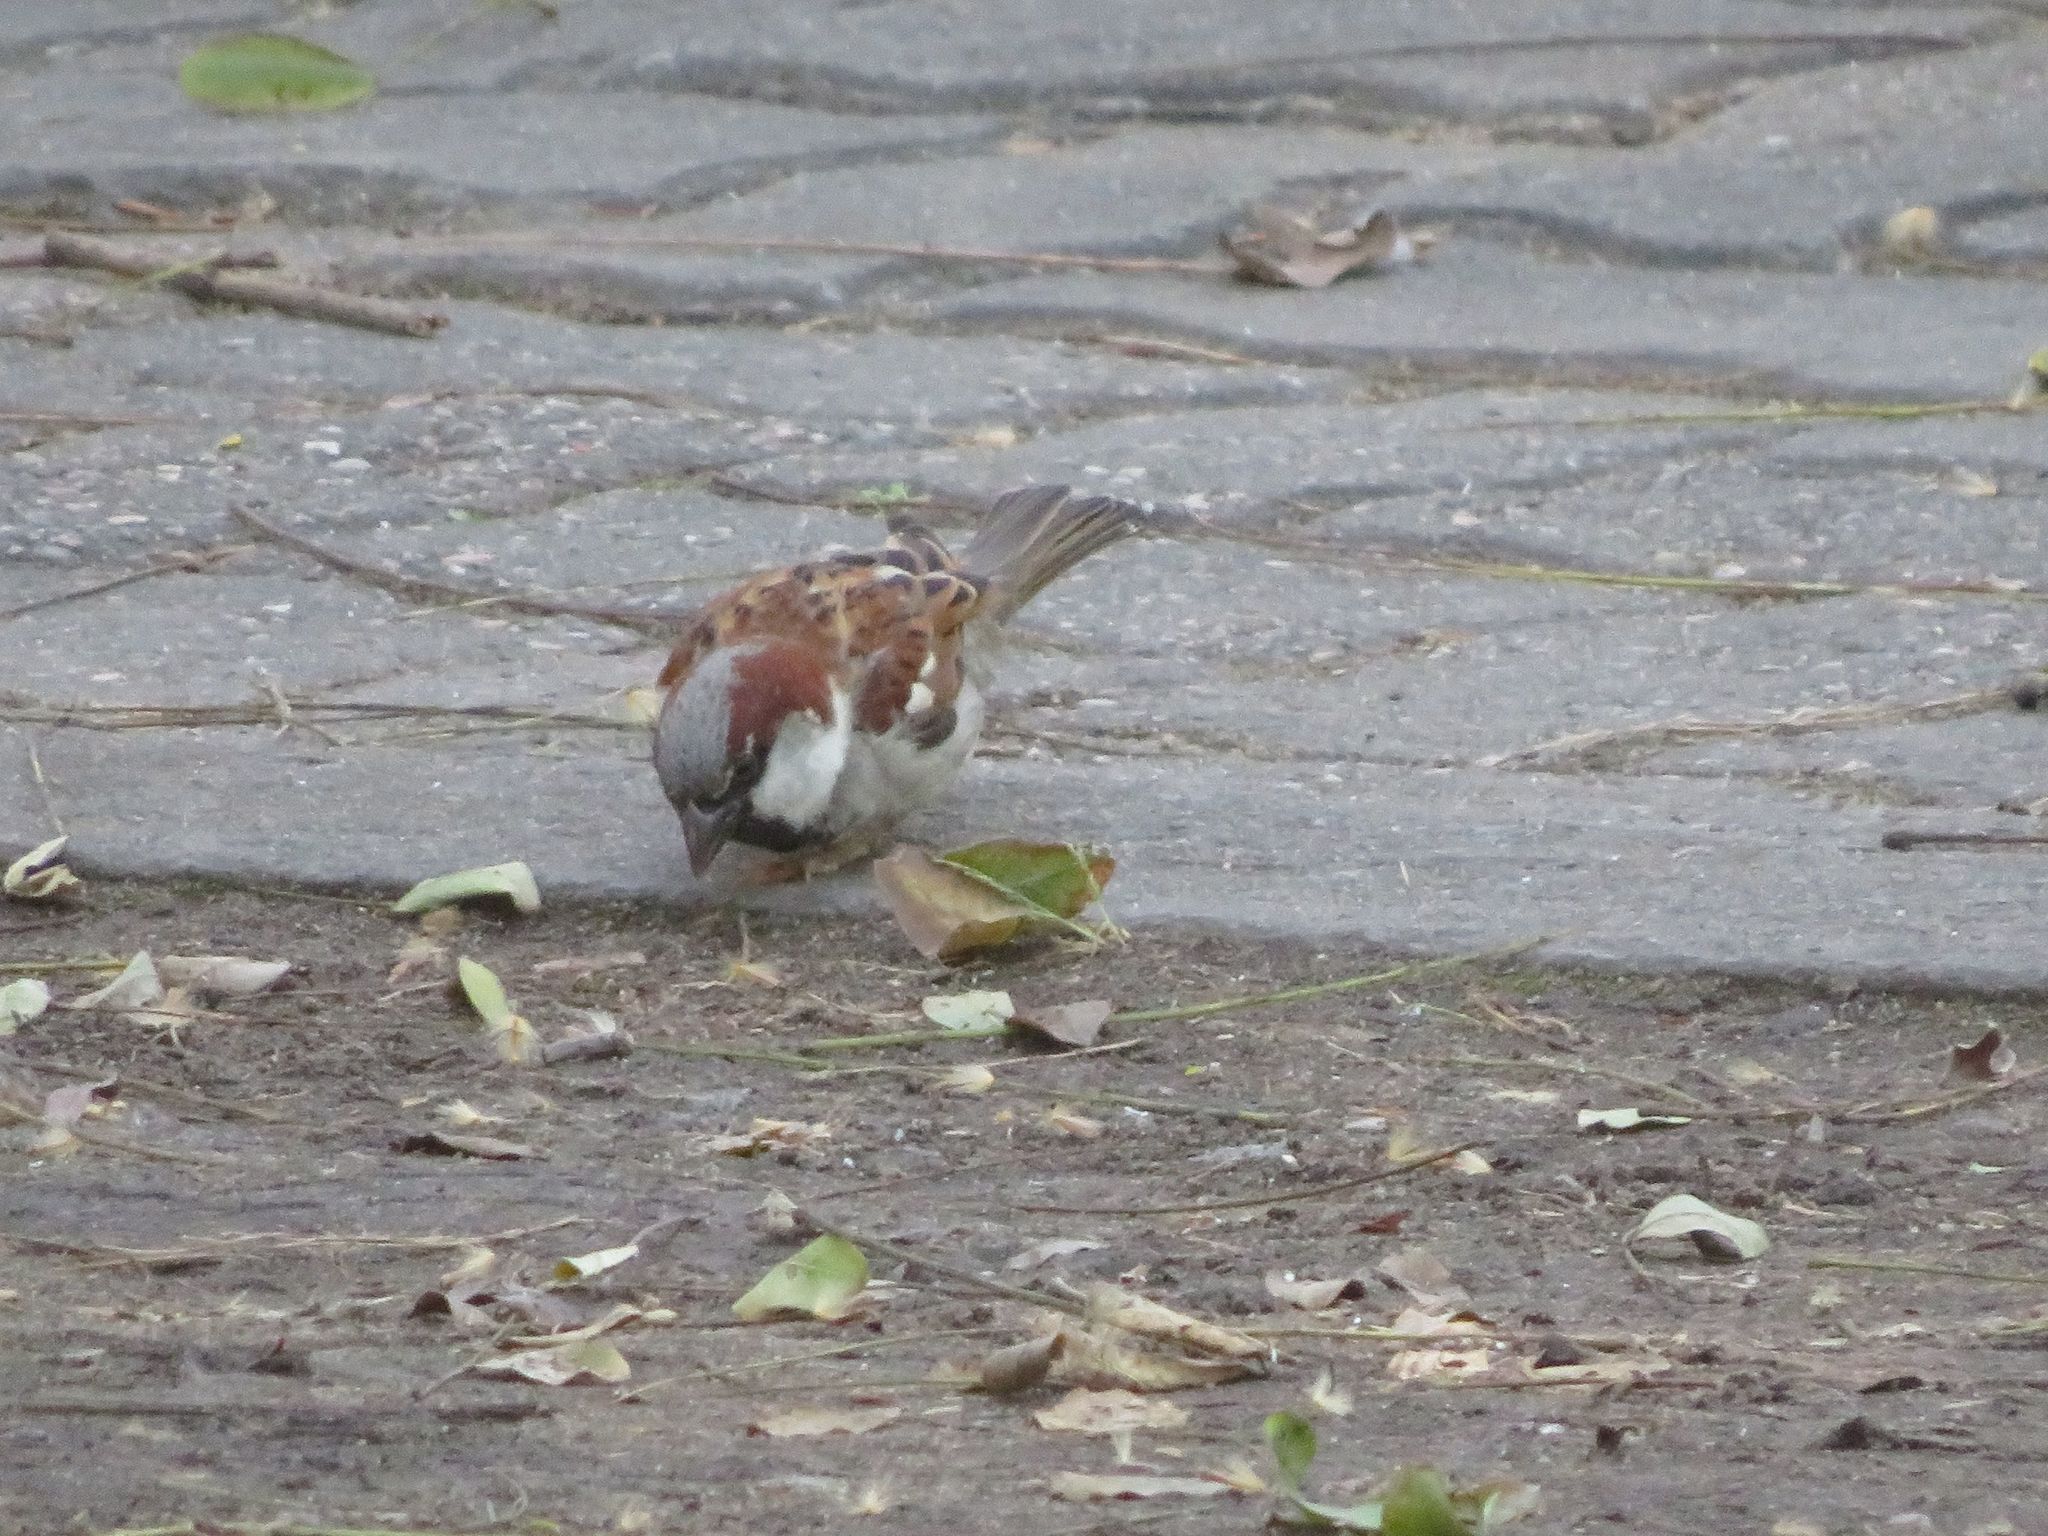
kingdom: Animalia
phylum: Chordata
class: Aves
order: Passeriformes
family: Passeridae
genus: Passer
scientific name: Passer domesticus
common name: House sparrow
